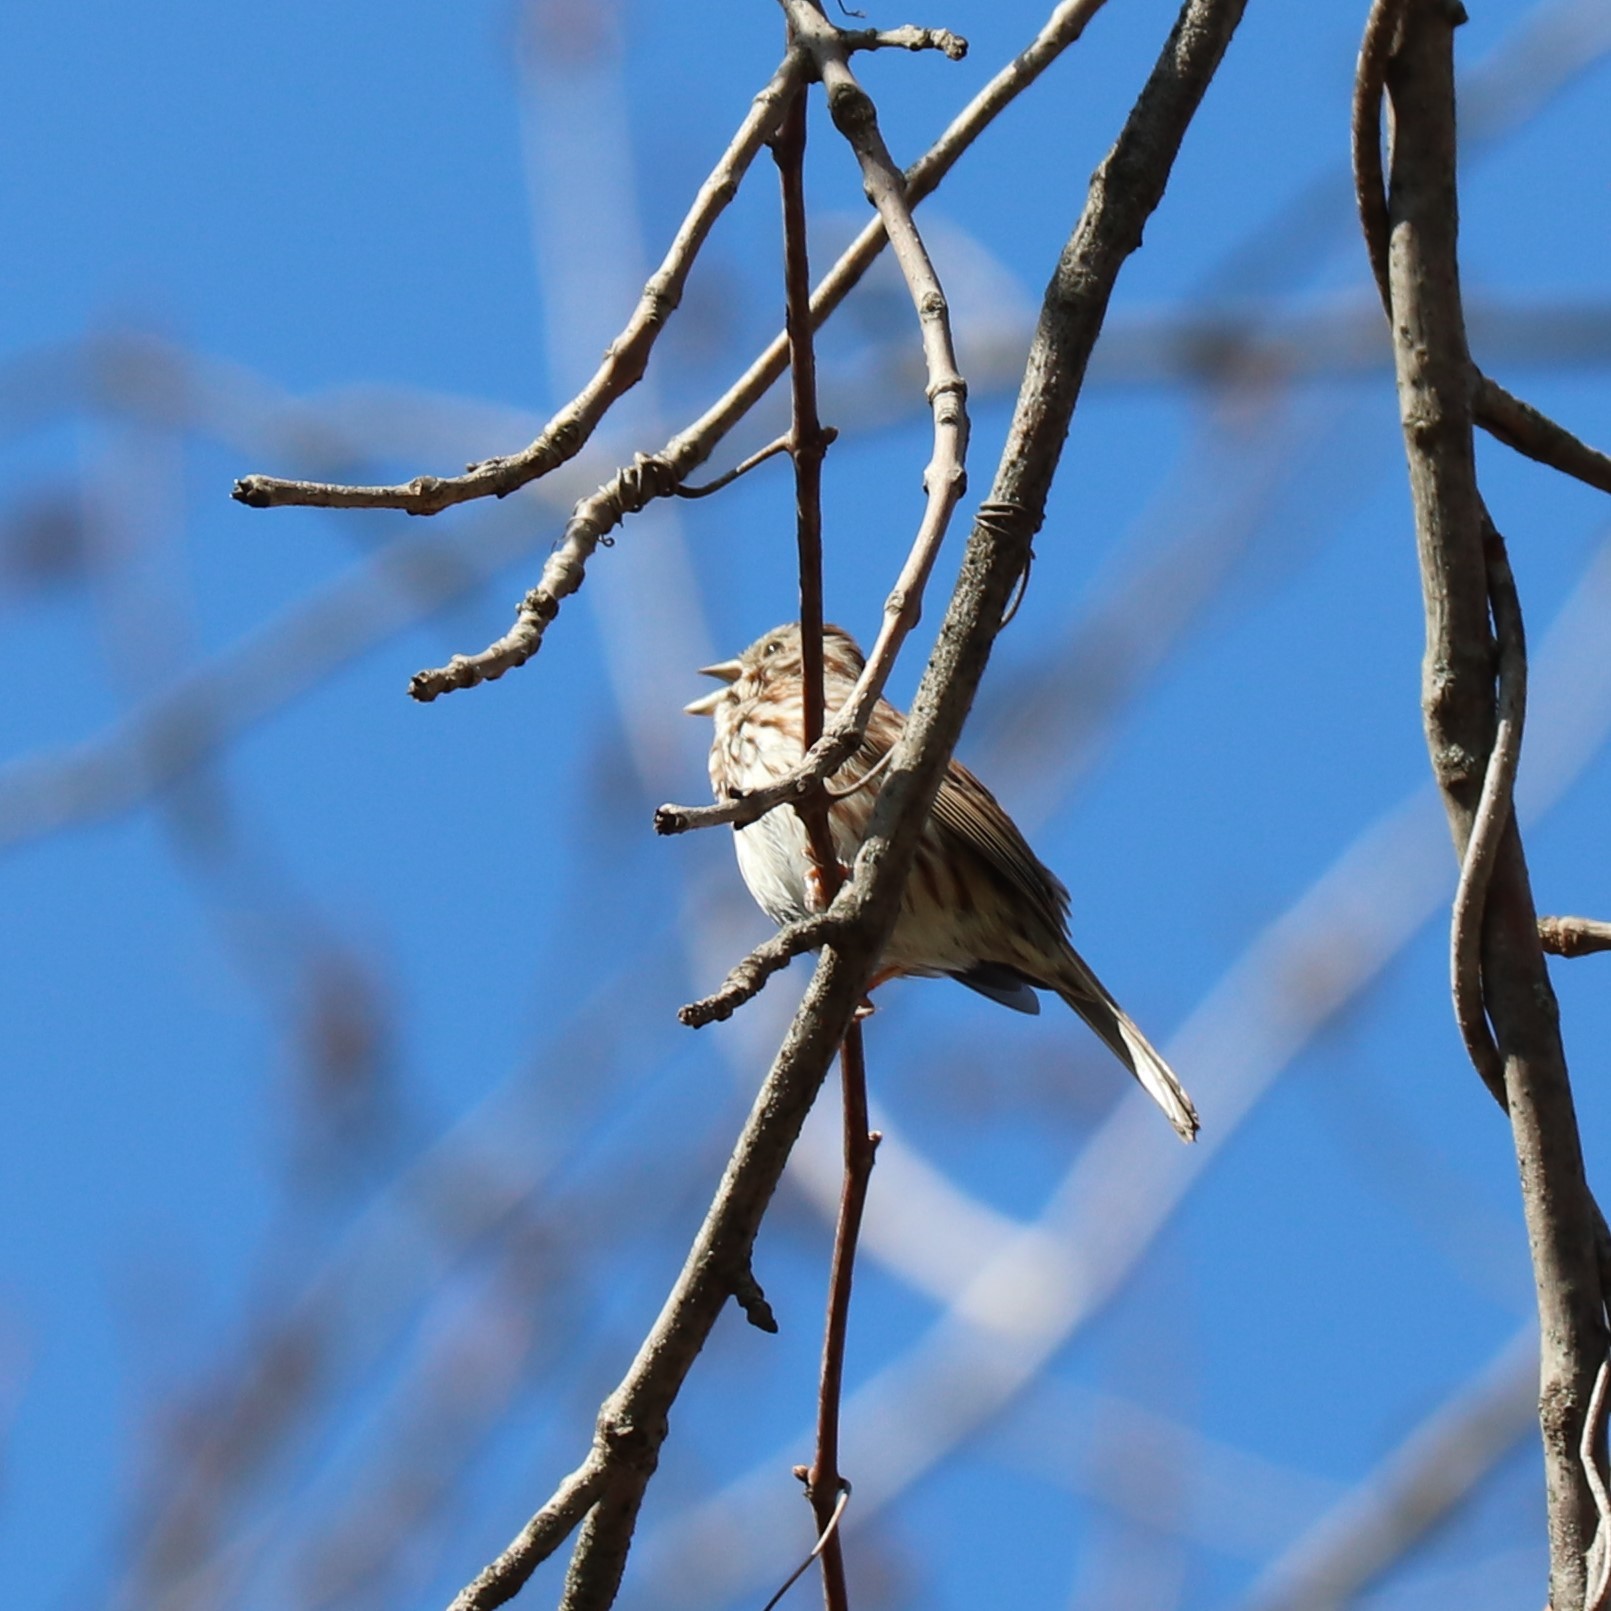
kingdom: Animalia
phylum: Chordata
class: Aves
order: Passeriformes
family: Passerellidae
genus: Melospiza
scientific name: Melospiza melodia
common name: Song sparrow
